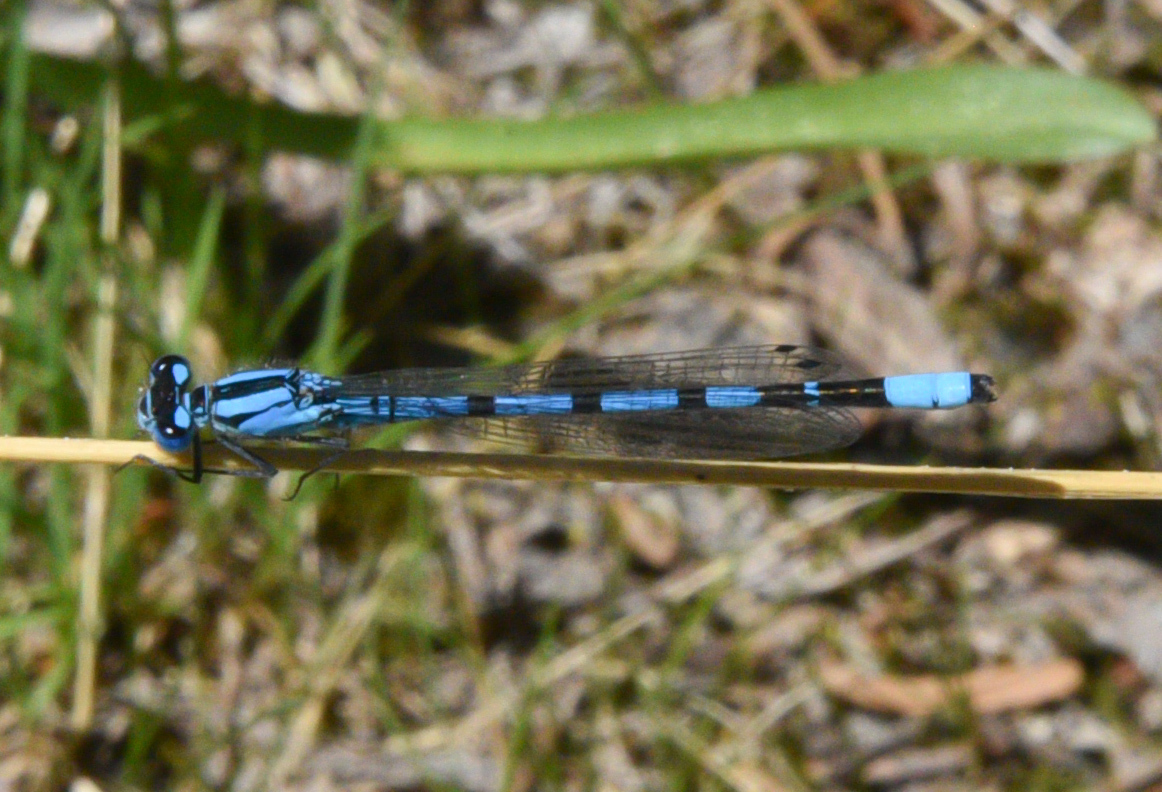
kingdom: Animalia
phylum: Arthropoda
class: Insecta
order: Odonata
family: Coenagrionidae
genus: Enallagma
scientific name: Enallagma civile
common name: Damselfly
